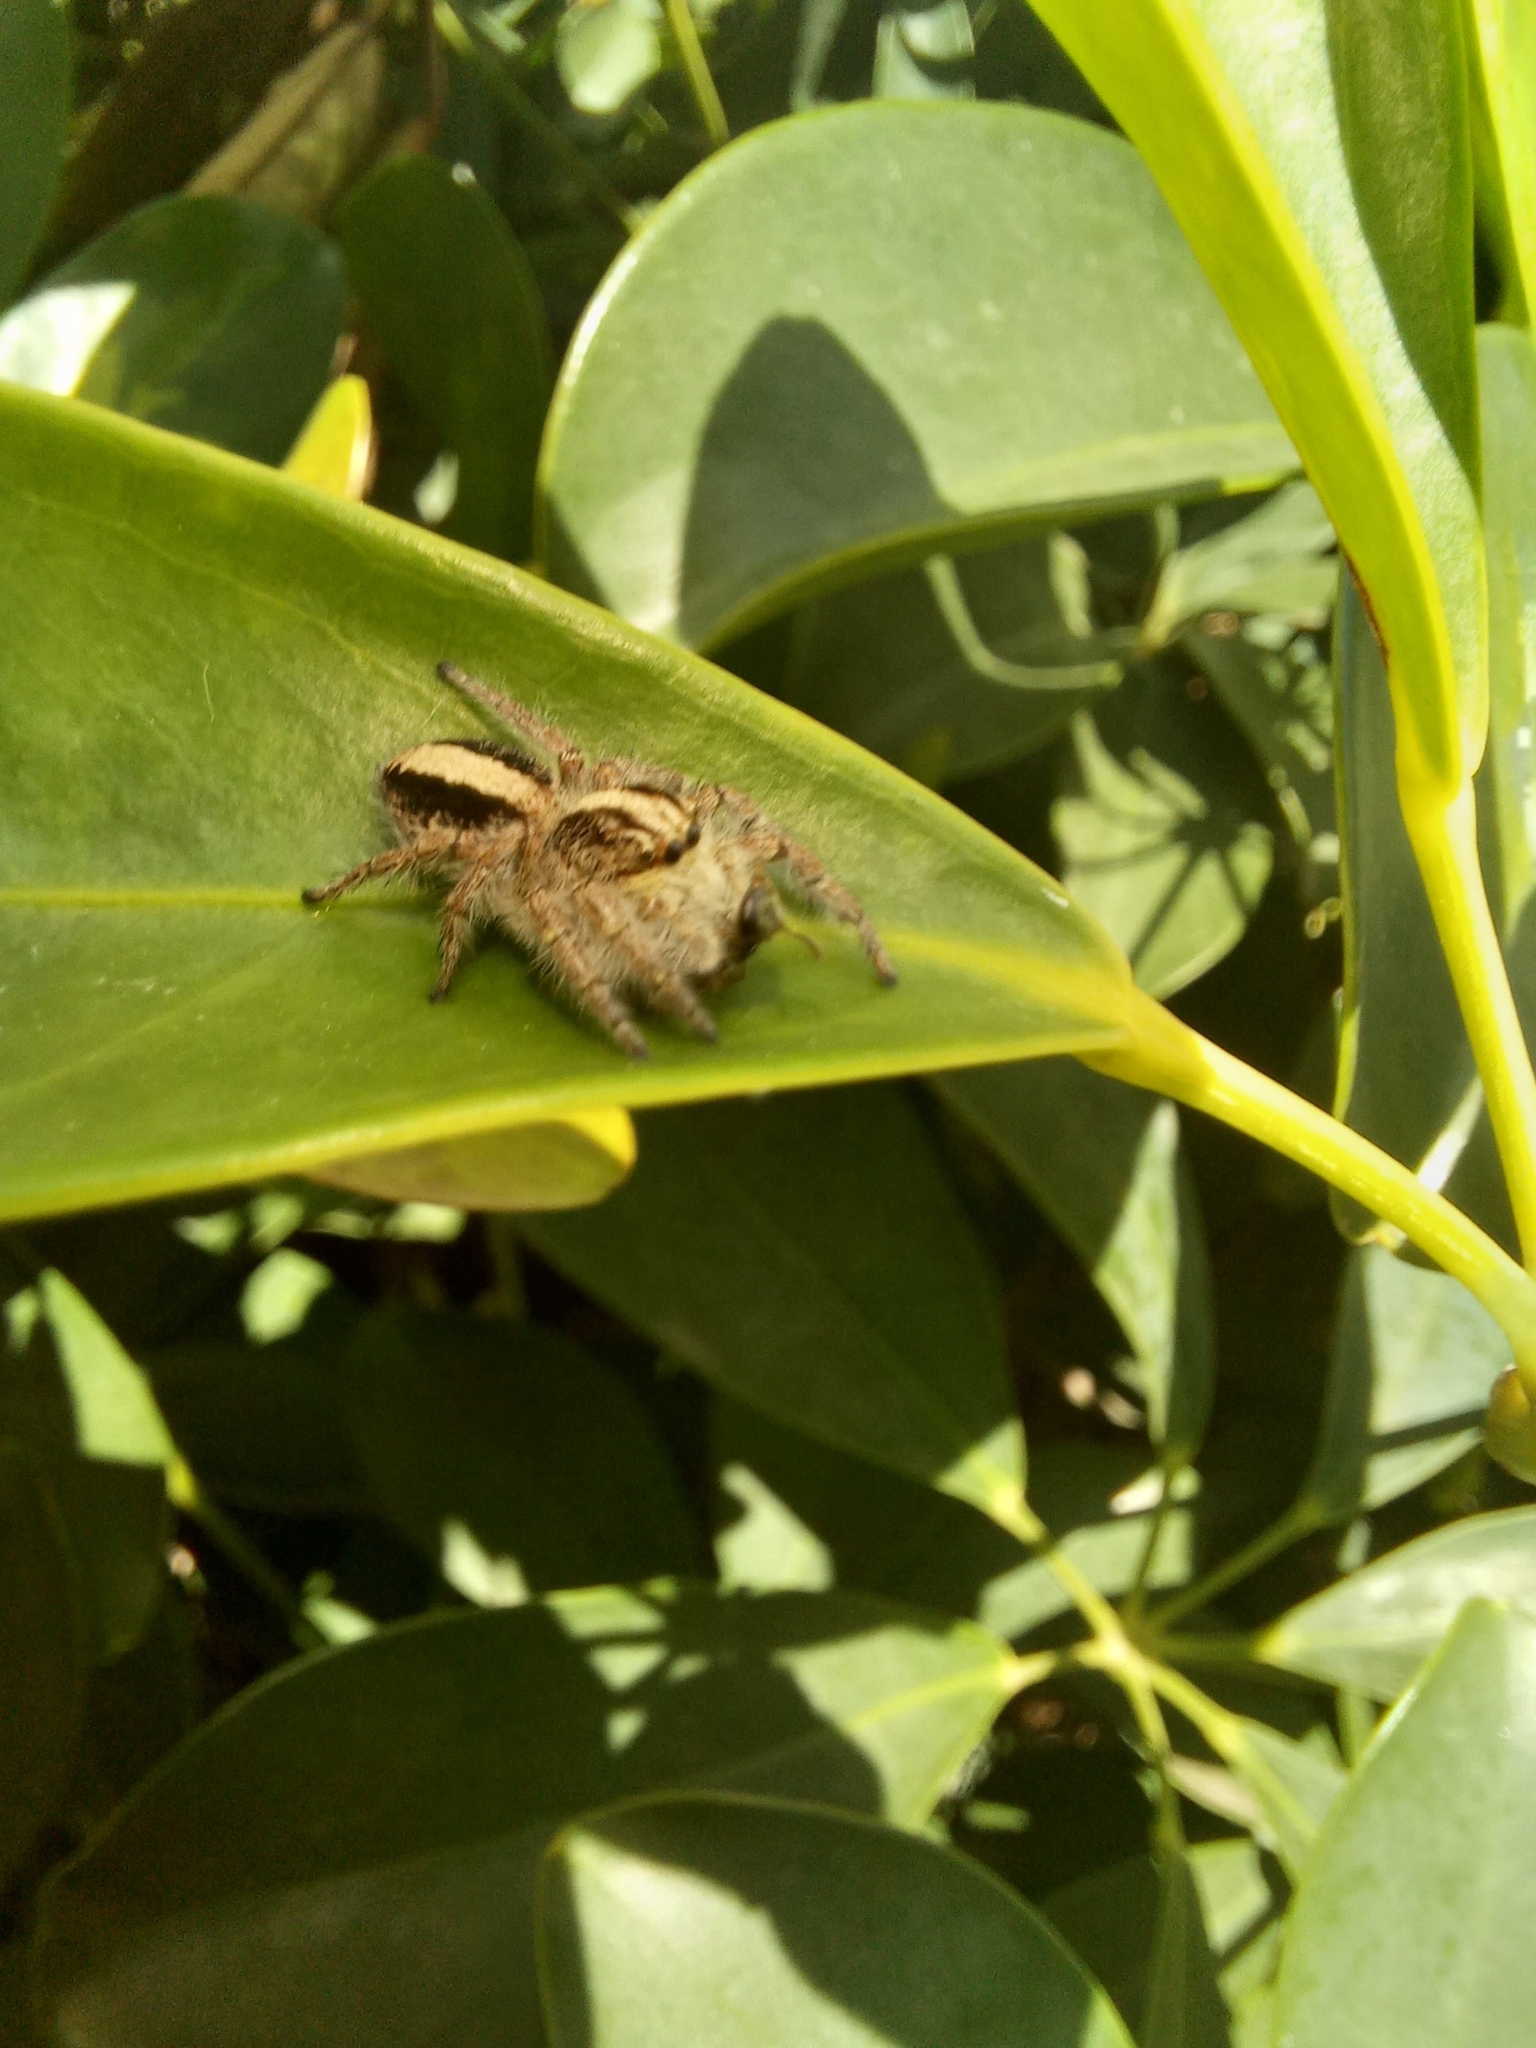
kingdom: Animalia
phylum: Arthropoda
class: Arachnida
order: Araneae
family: Salticidae
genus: Megafreya
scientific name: Megafreya sutrix
